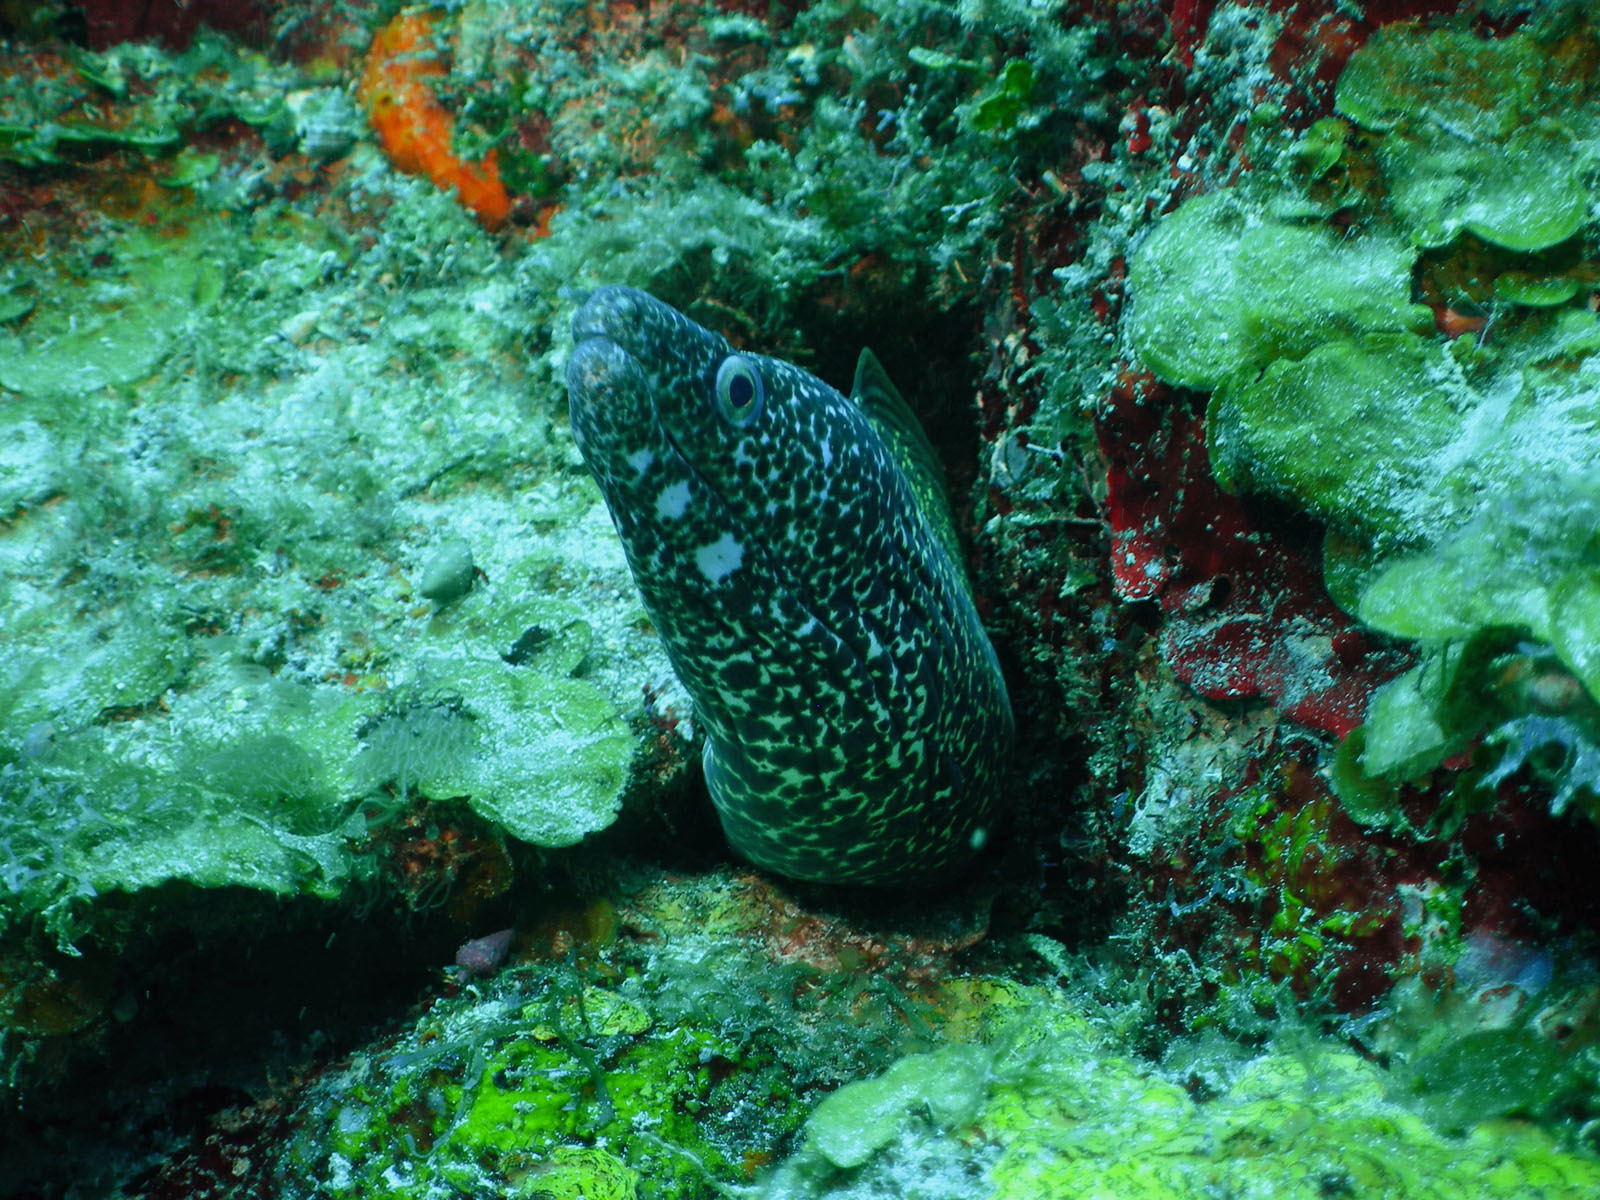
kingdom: Animalia
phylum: Chordata
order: Anguilliformes
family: Muraenidae
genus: Gymnothorax
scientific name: Gymnothorax moringa
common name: Spotted moray
